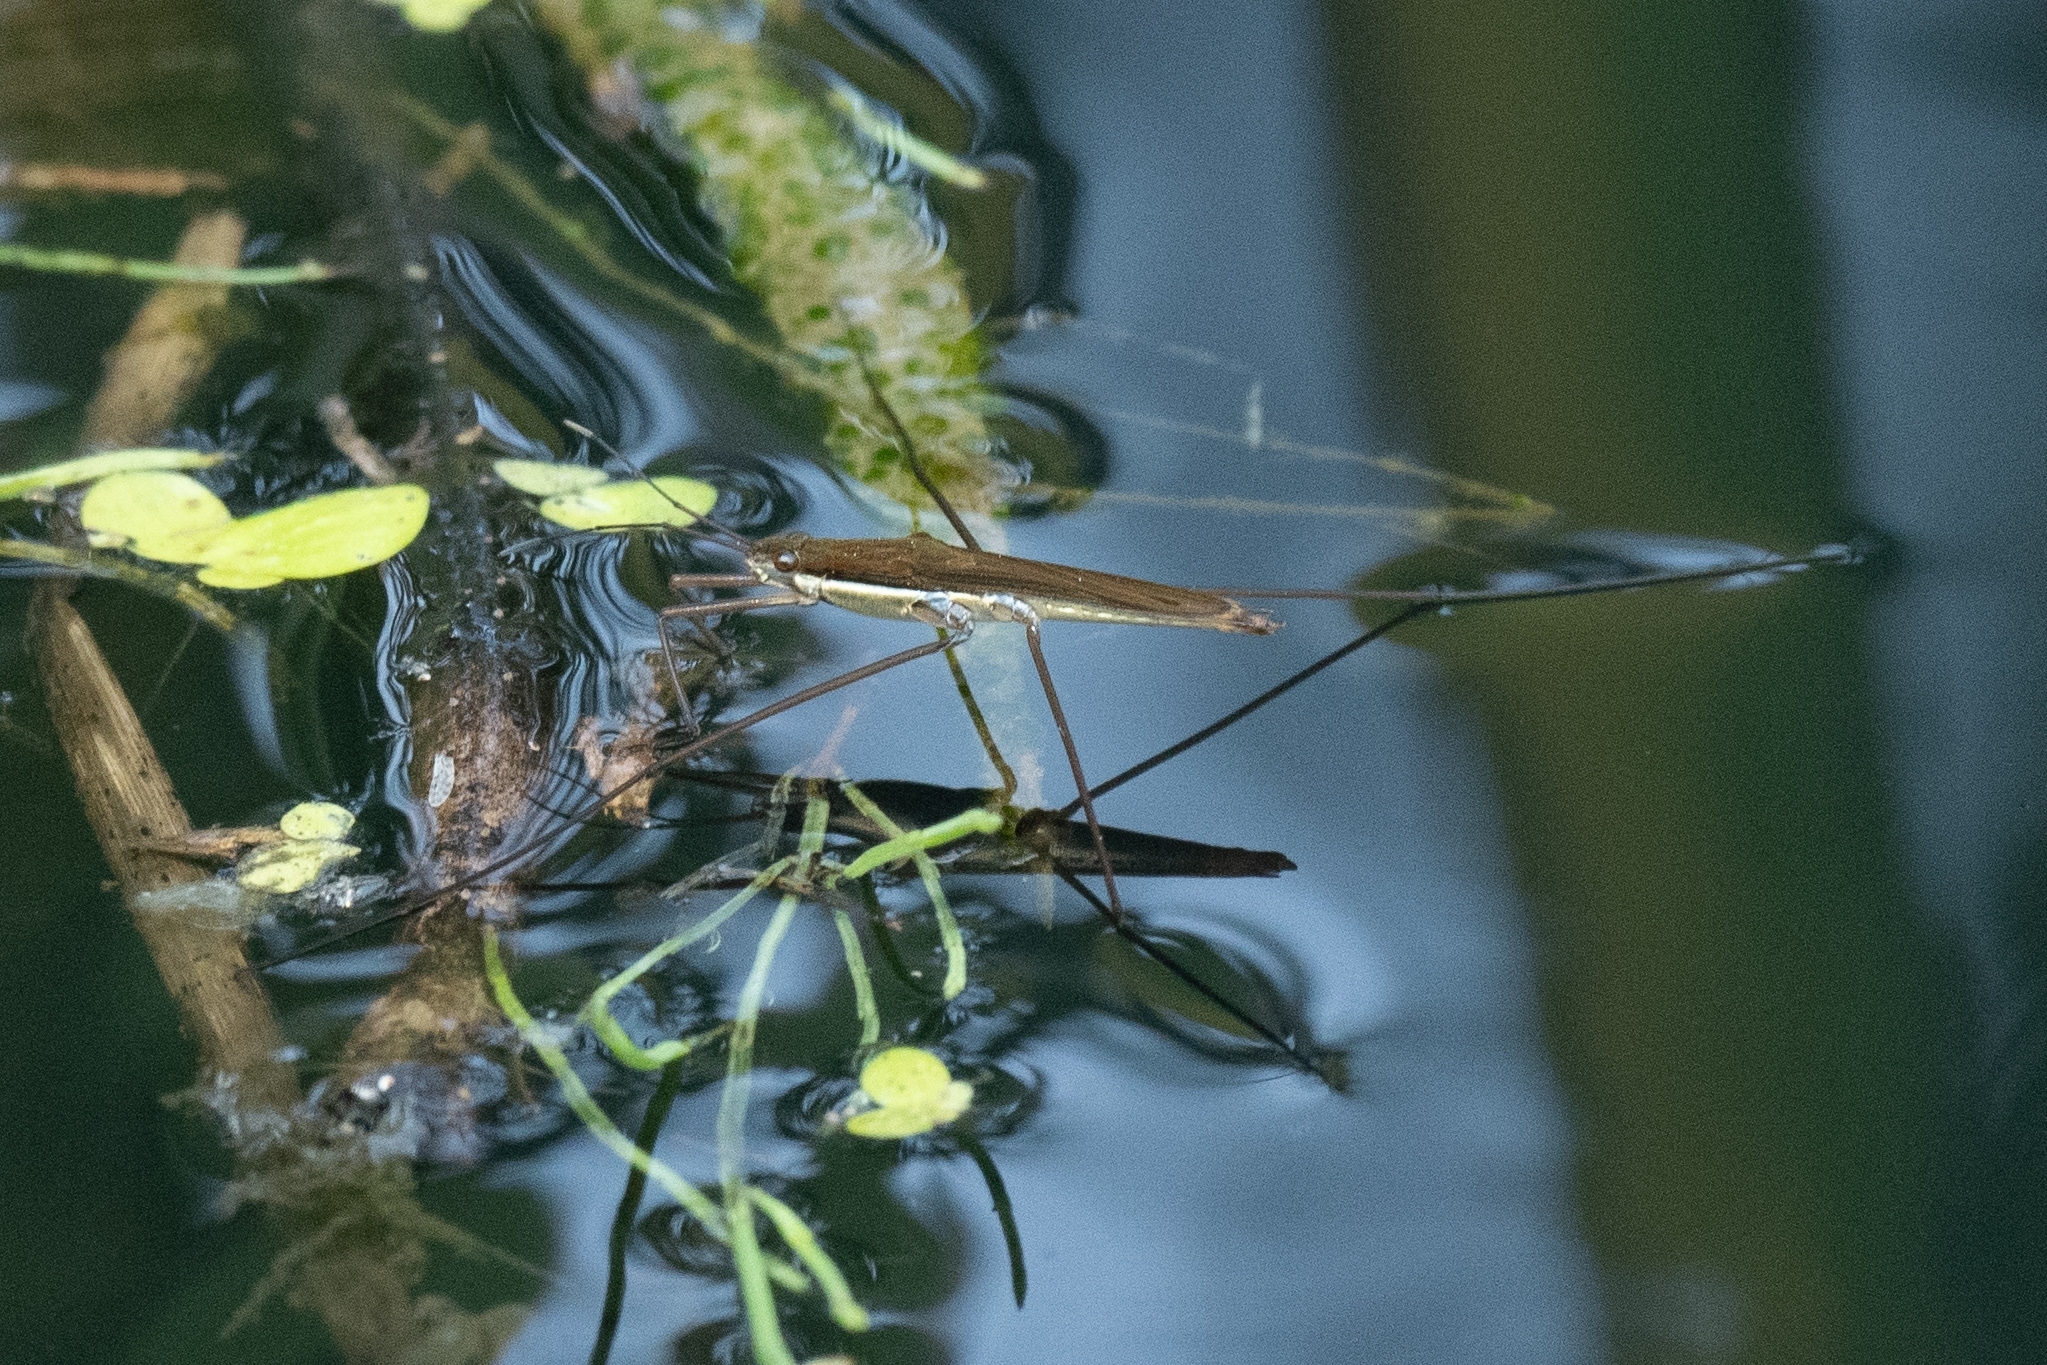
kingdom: Animalia
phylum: Arthropoda
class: Insecta
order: Hemiptera
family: Gerridae
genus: Limnoporus
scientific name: Limnoporus notabilis
